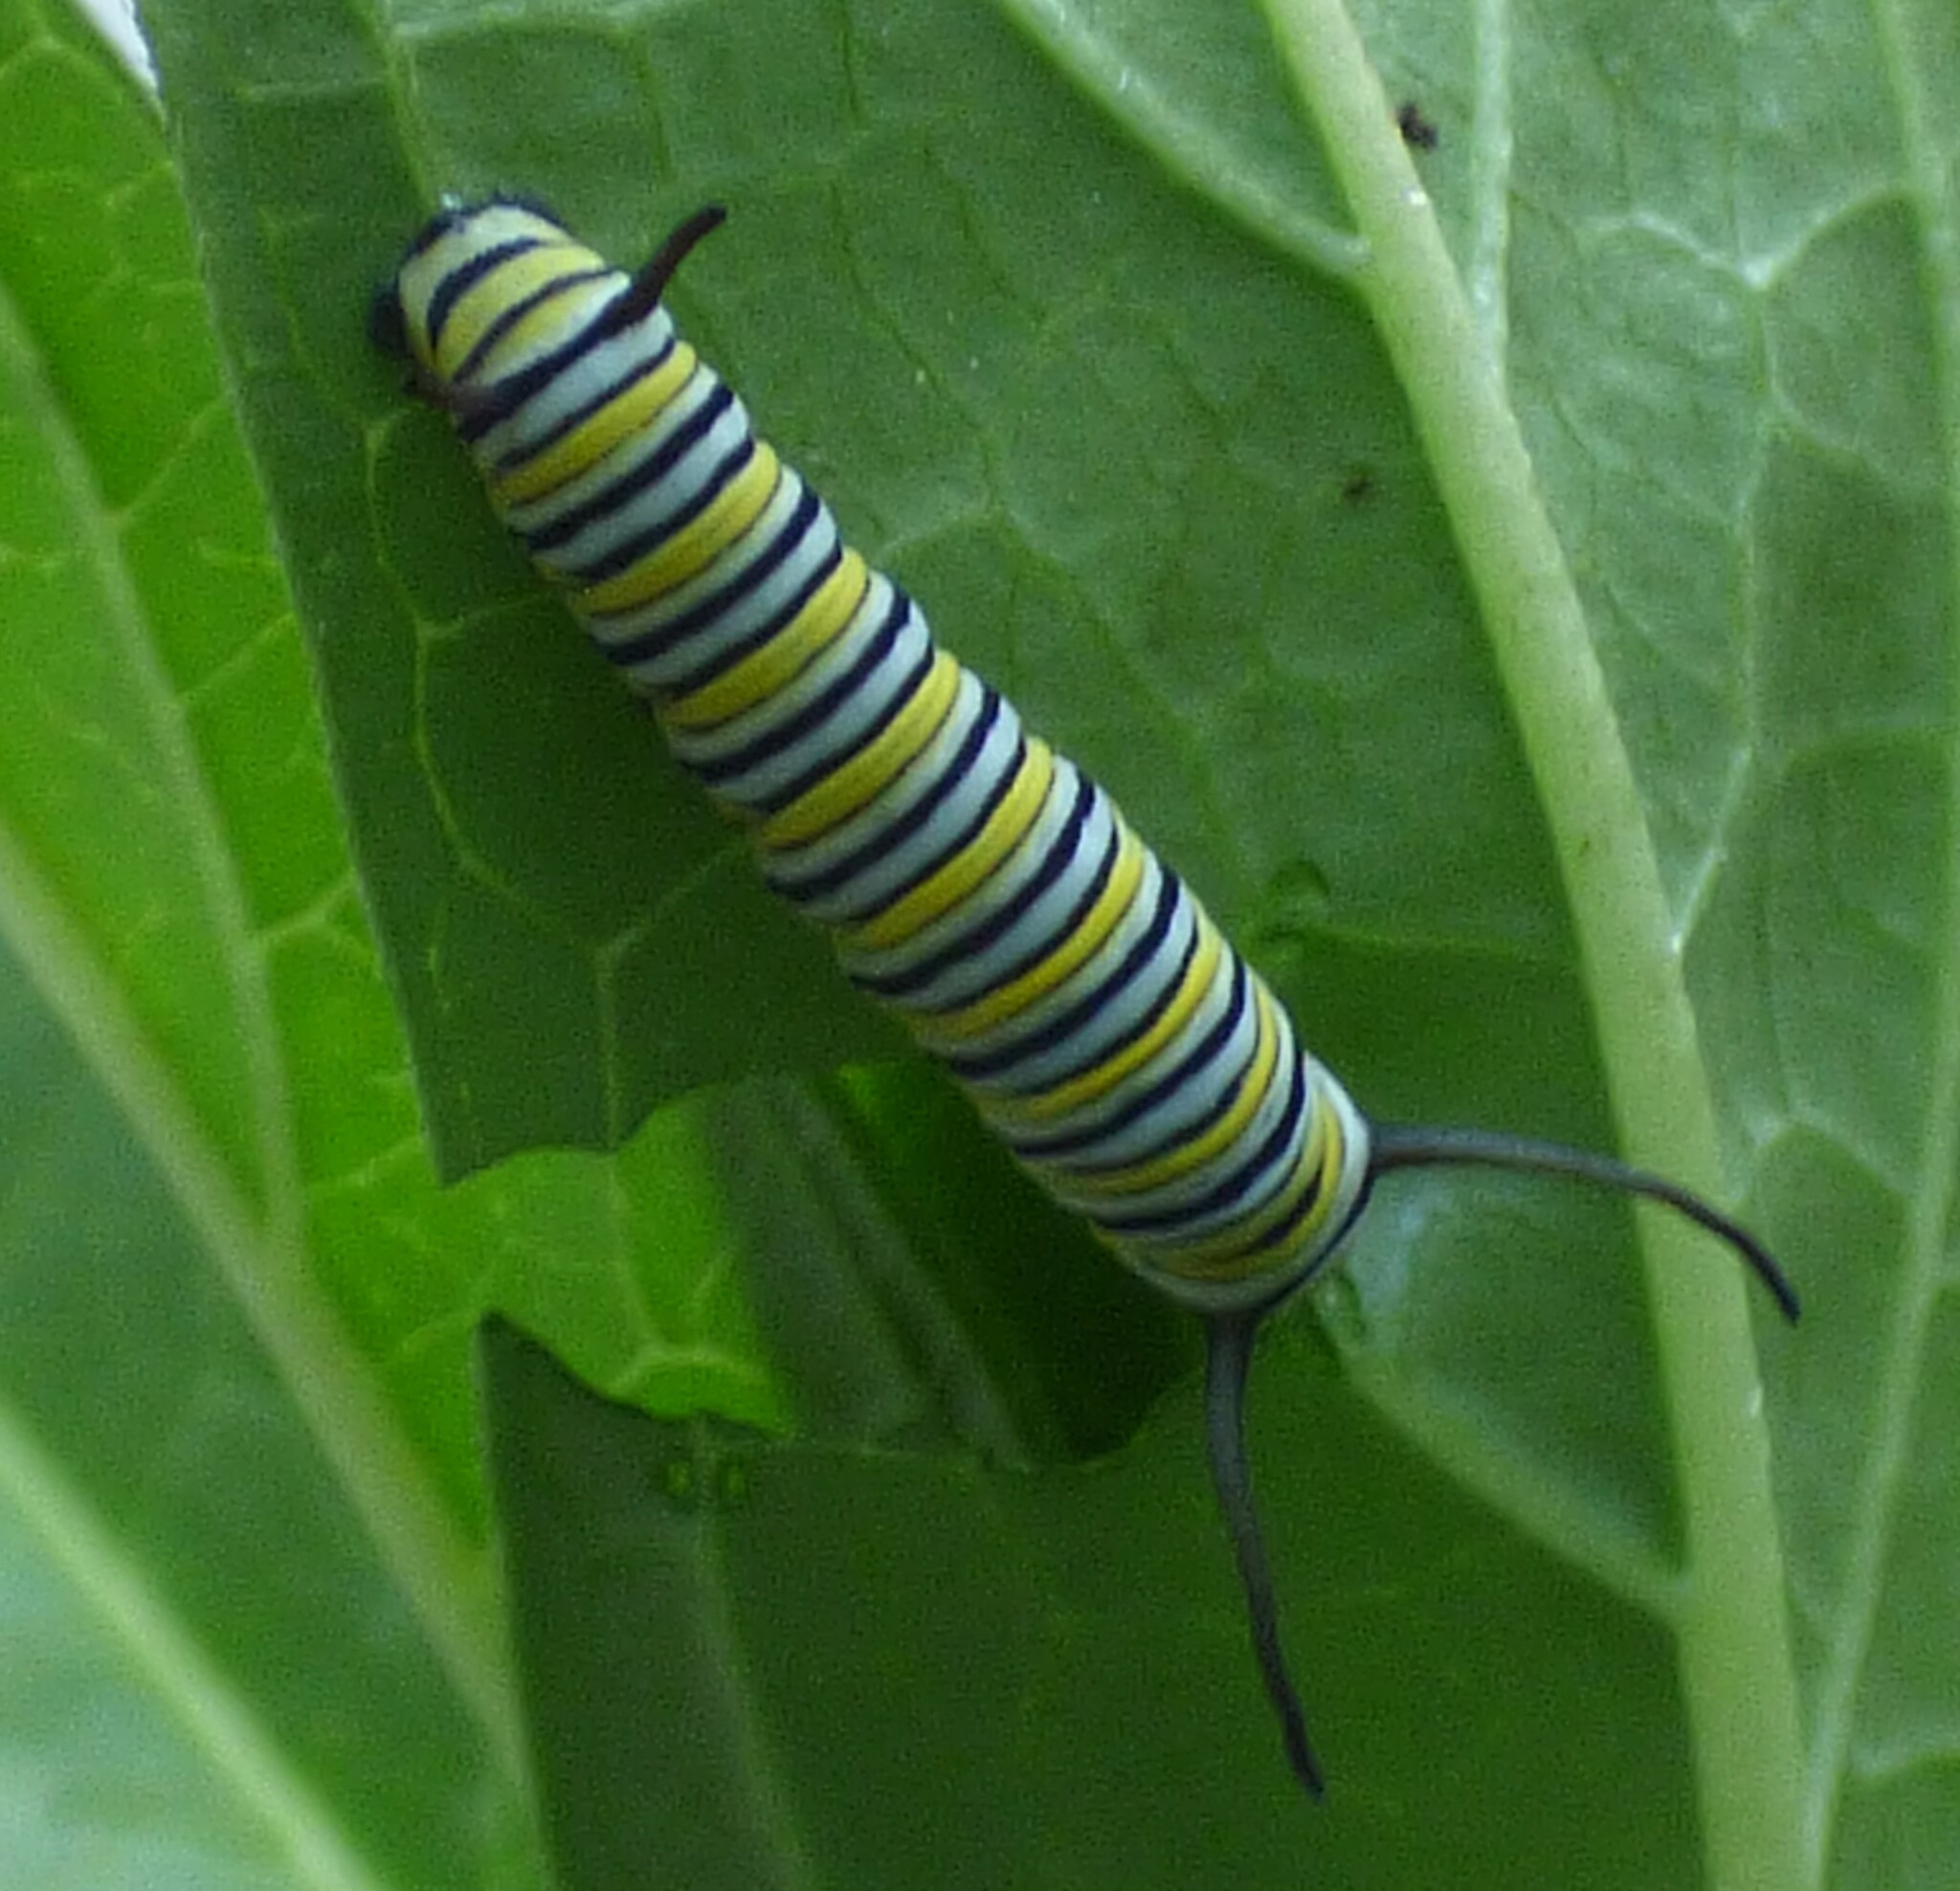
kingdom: Animalia
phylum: Arthropoda
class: Insecta
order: Lepidoptera
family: Nymphalidae
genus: Danaus
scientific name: Danaus plexippus
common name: Monarch
